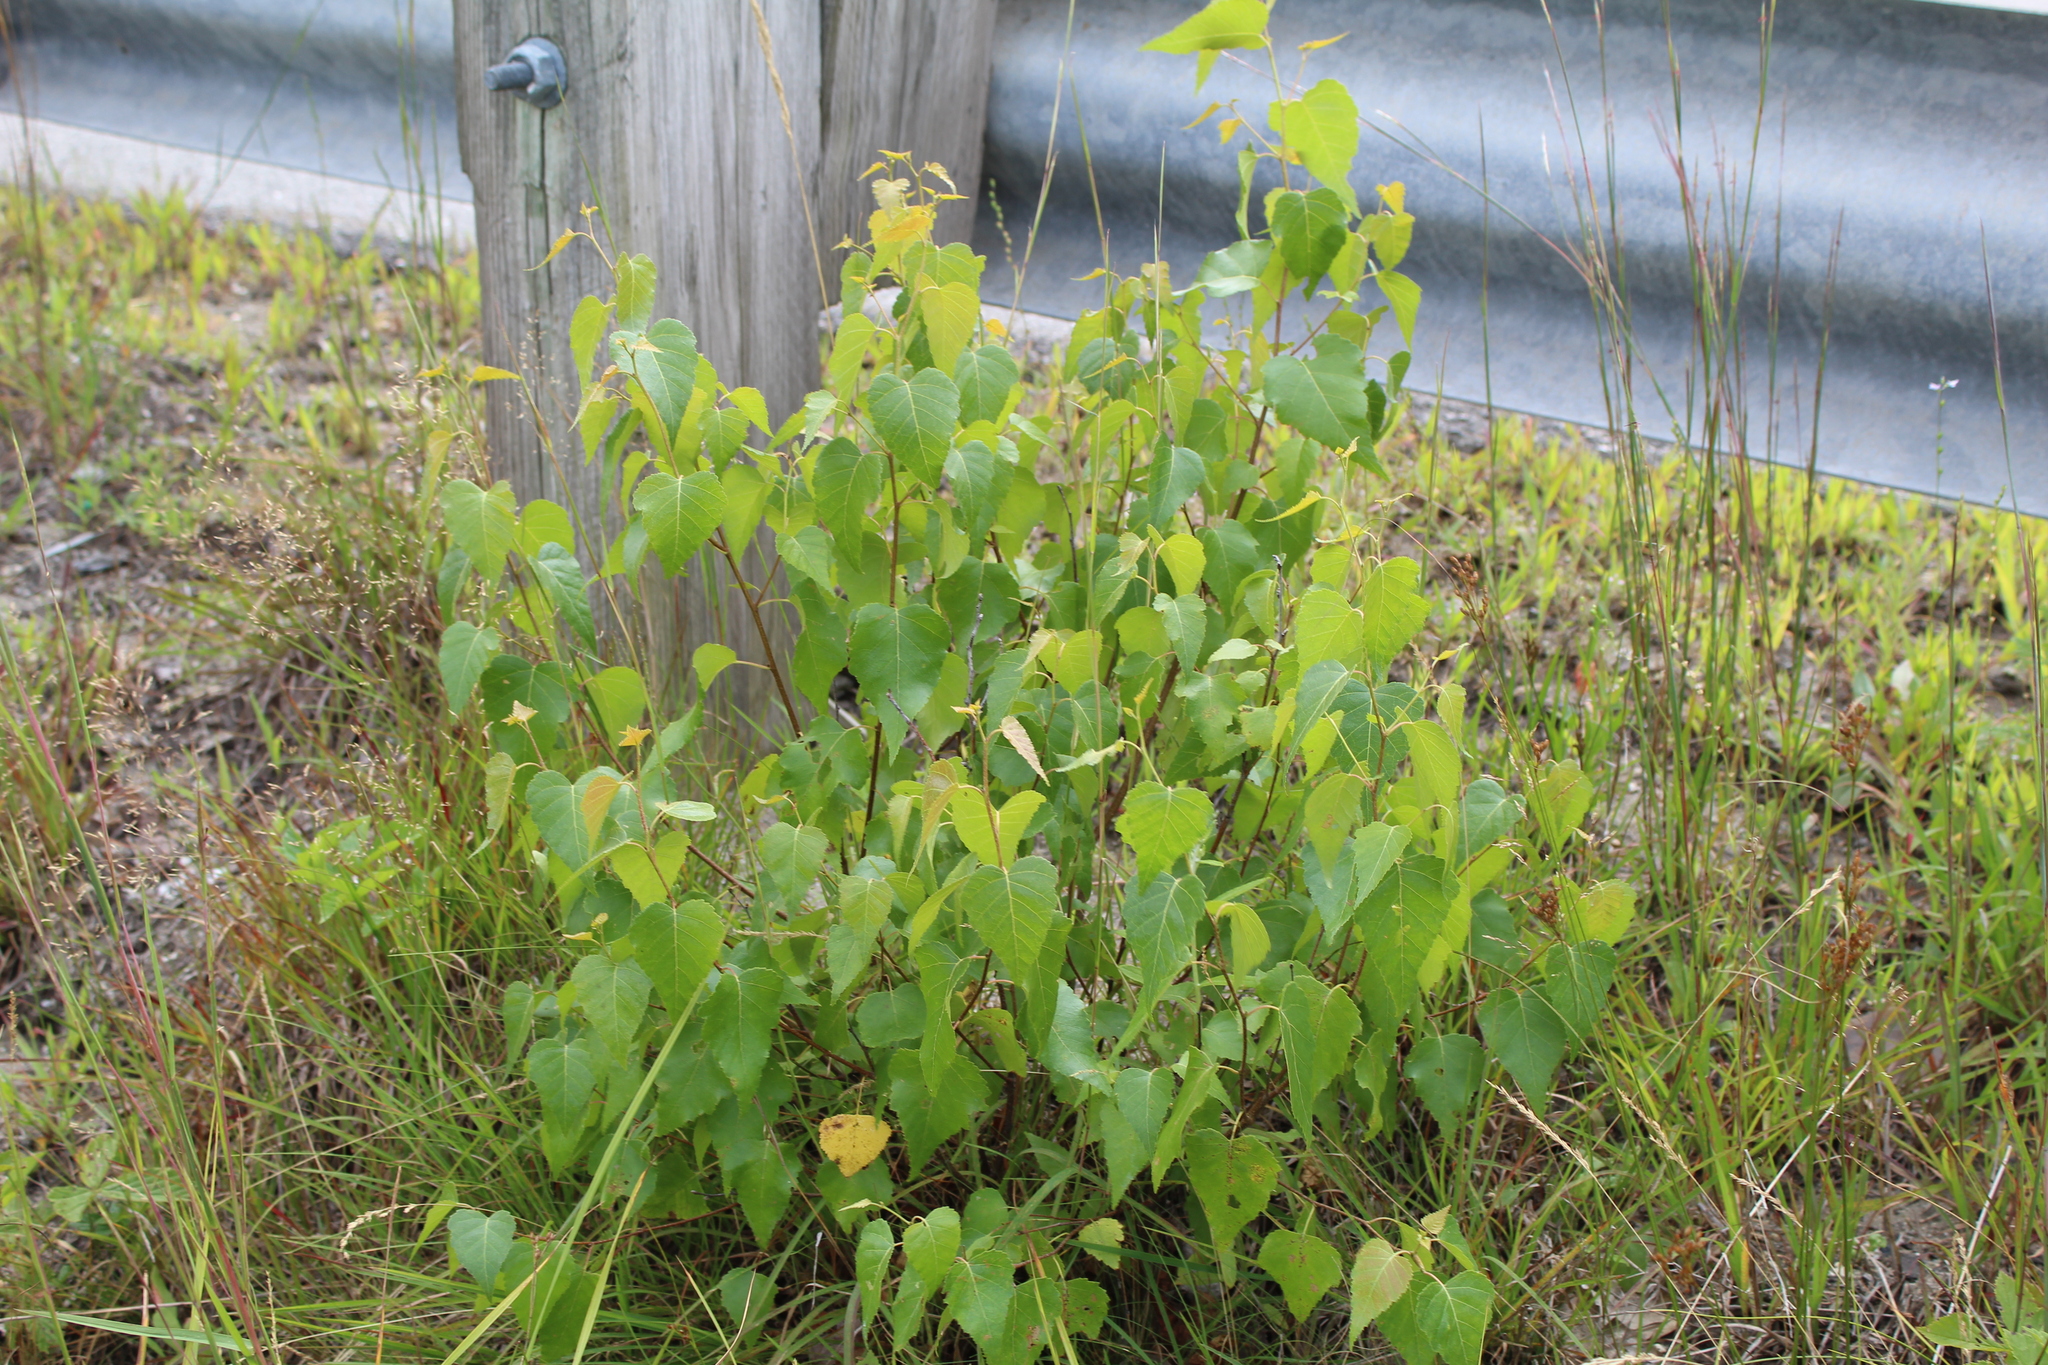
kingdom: Plantae
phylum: Tracheophyta
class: Magnoliopsida
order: Fagales
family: Betulaceae
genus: Betula
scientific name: Betula populifolia
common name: Fire birch
